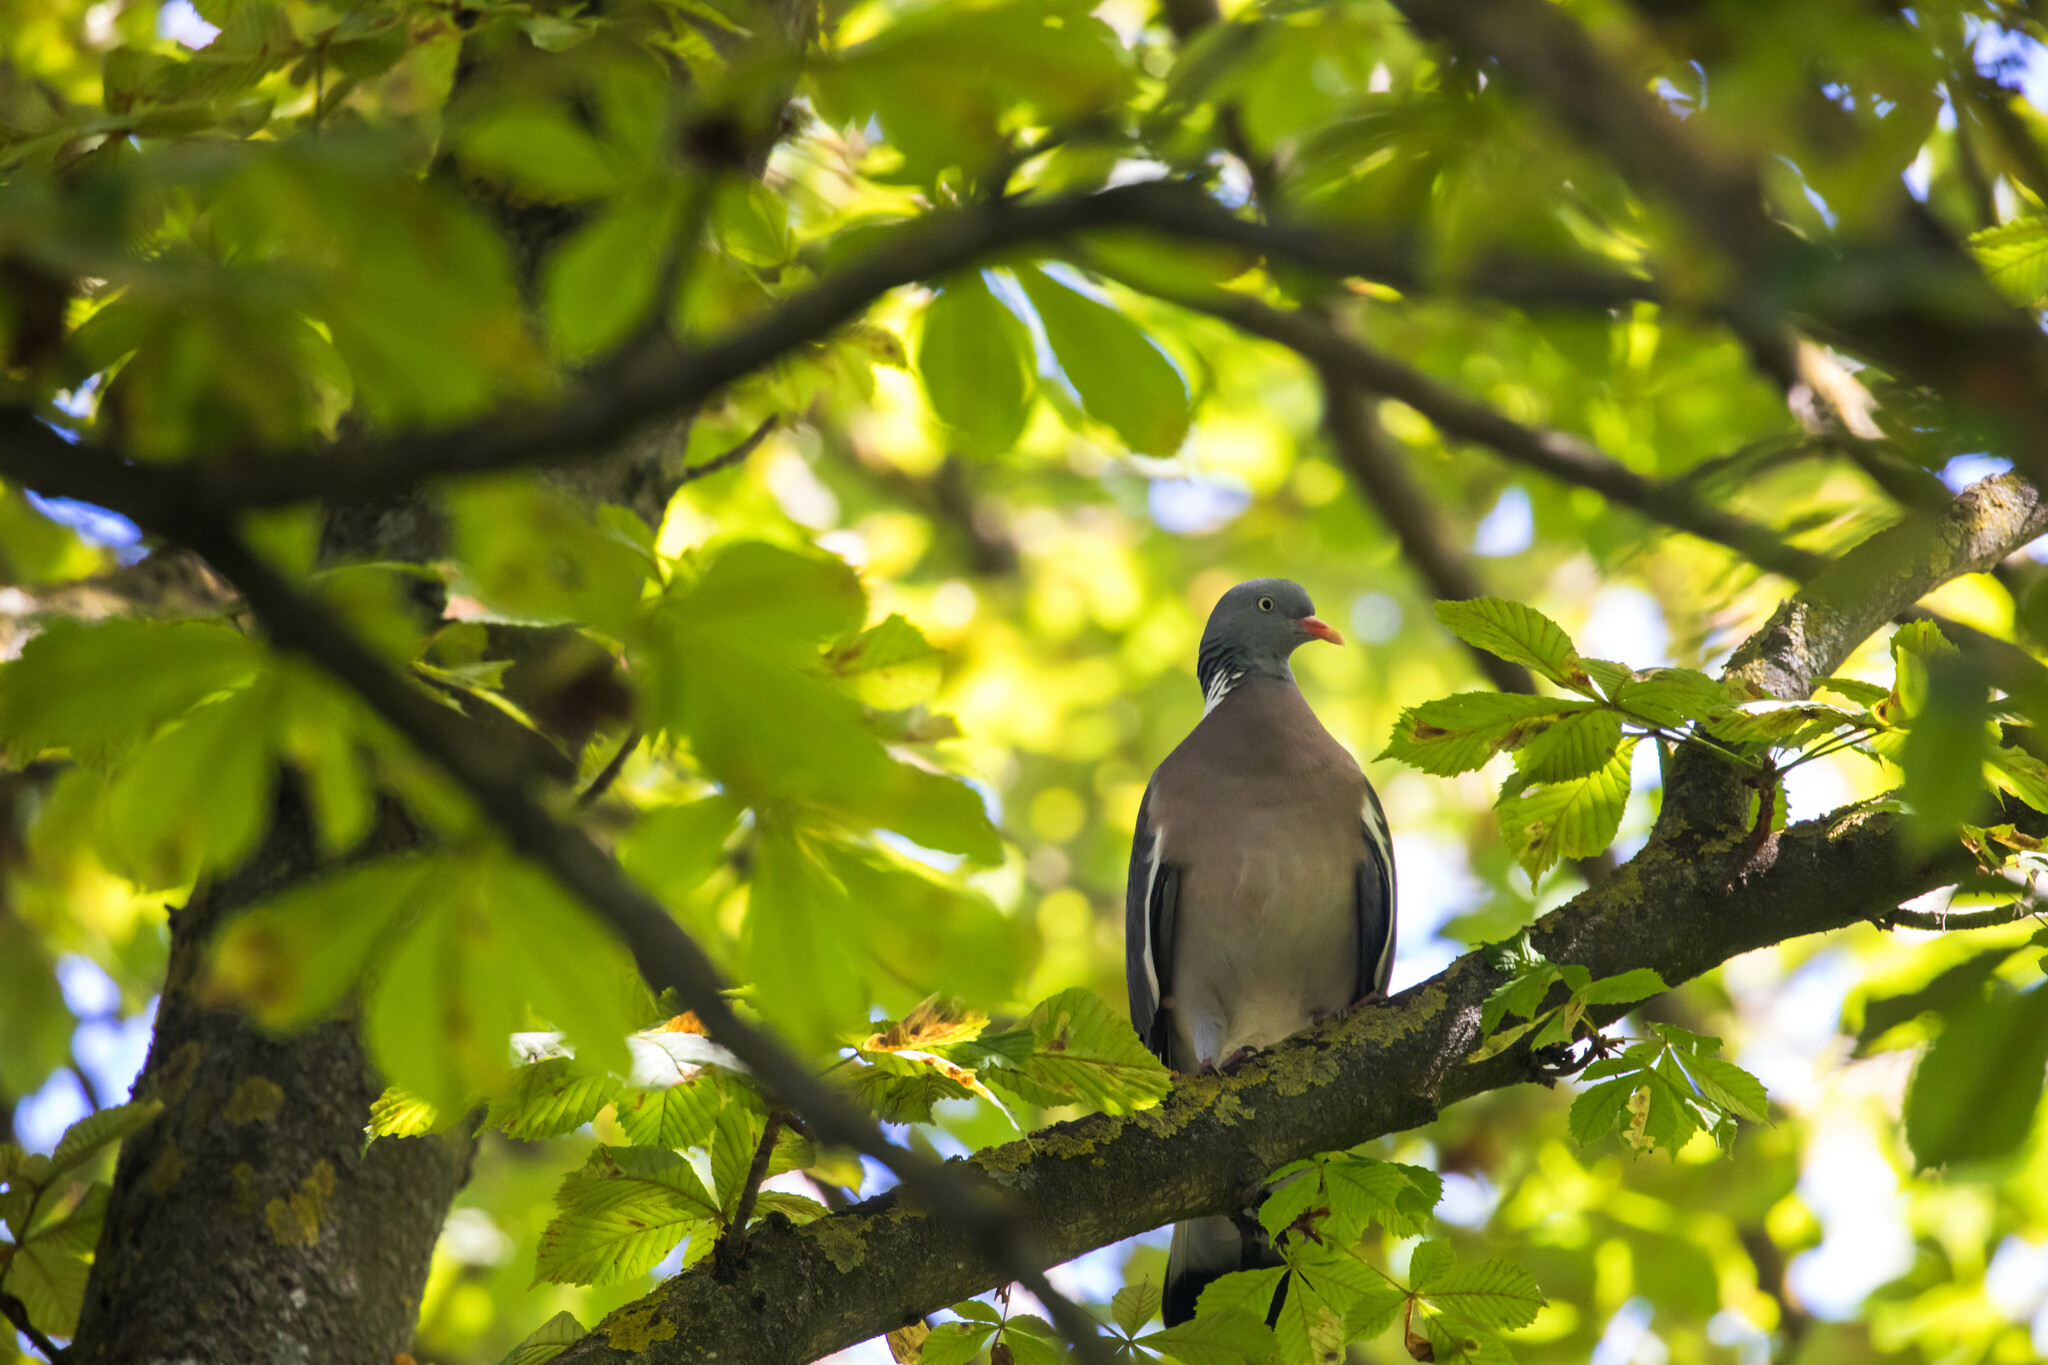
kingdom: Animalia
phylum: Chordata
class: Aves
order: Columbiformes
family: Columbidae
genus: Columba
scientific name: Columba palumbus
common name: Common wood pigeon
